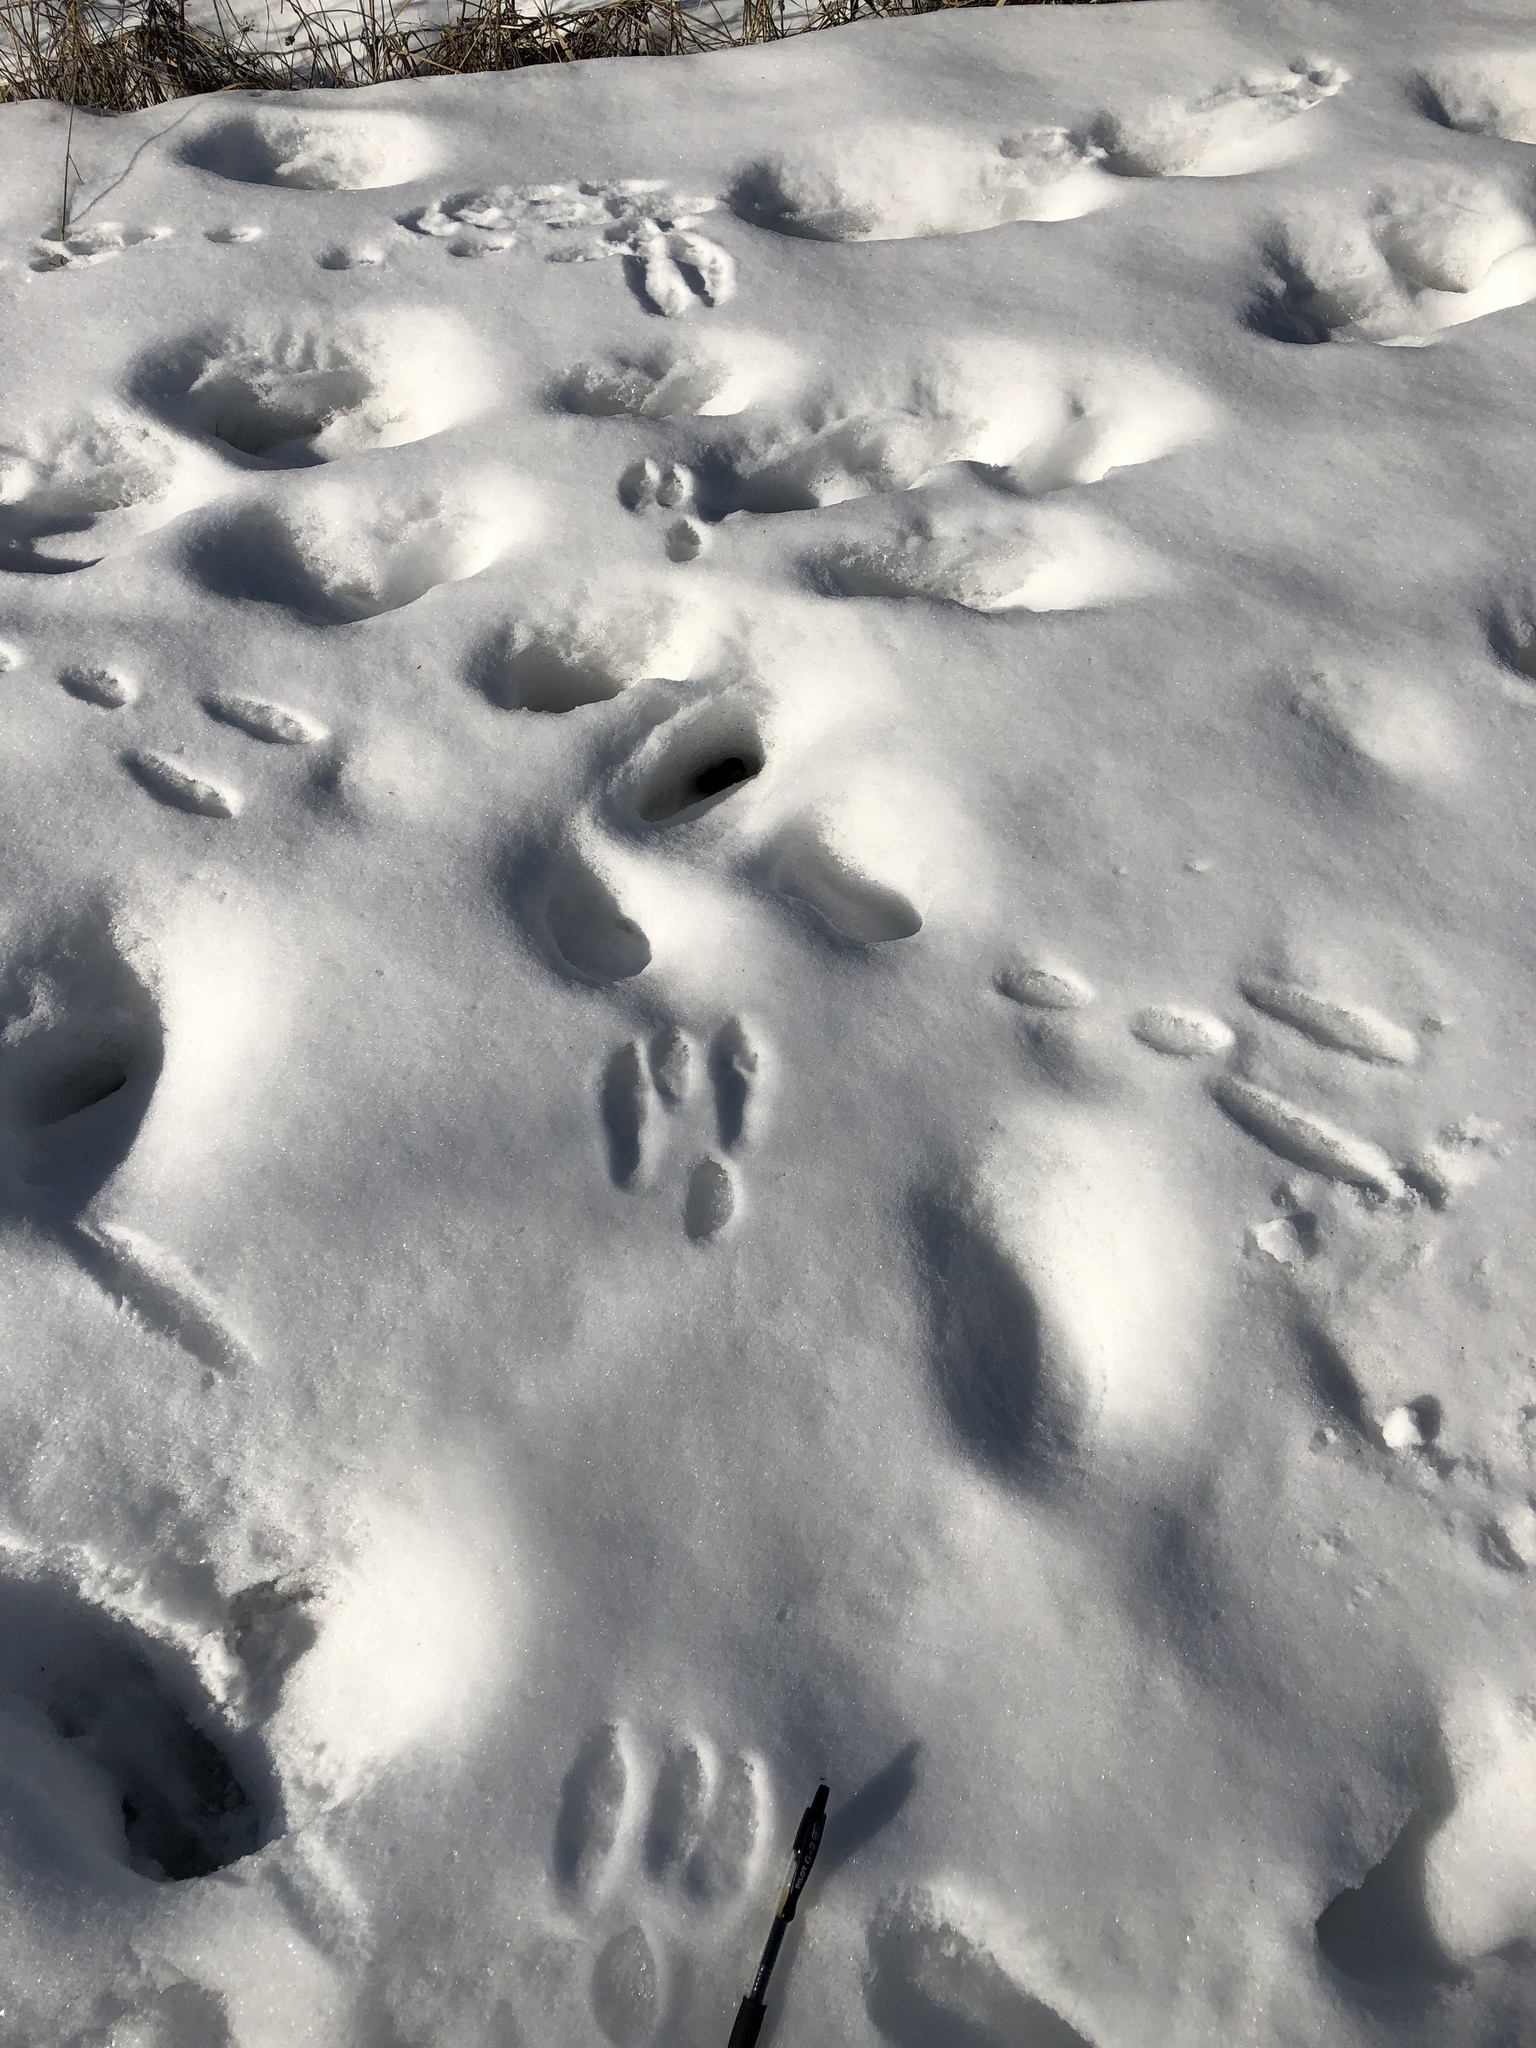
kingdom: Animalia
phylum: Chordata
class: Mammalia
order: Lagomorpha
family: Leporidae
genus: Sylvilagus
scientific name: Sylvilagus floridanus
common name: Eastern cottontail
